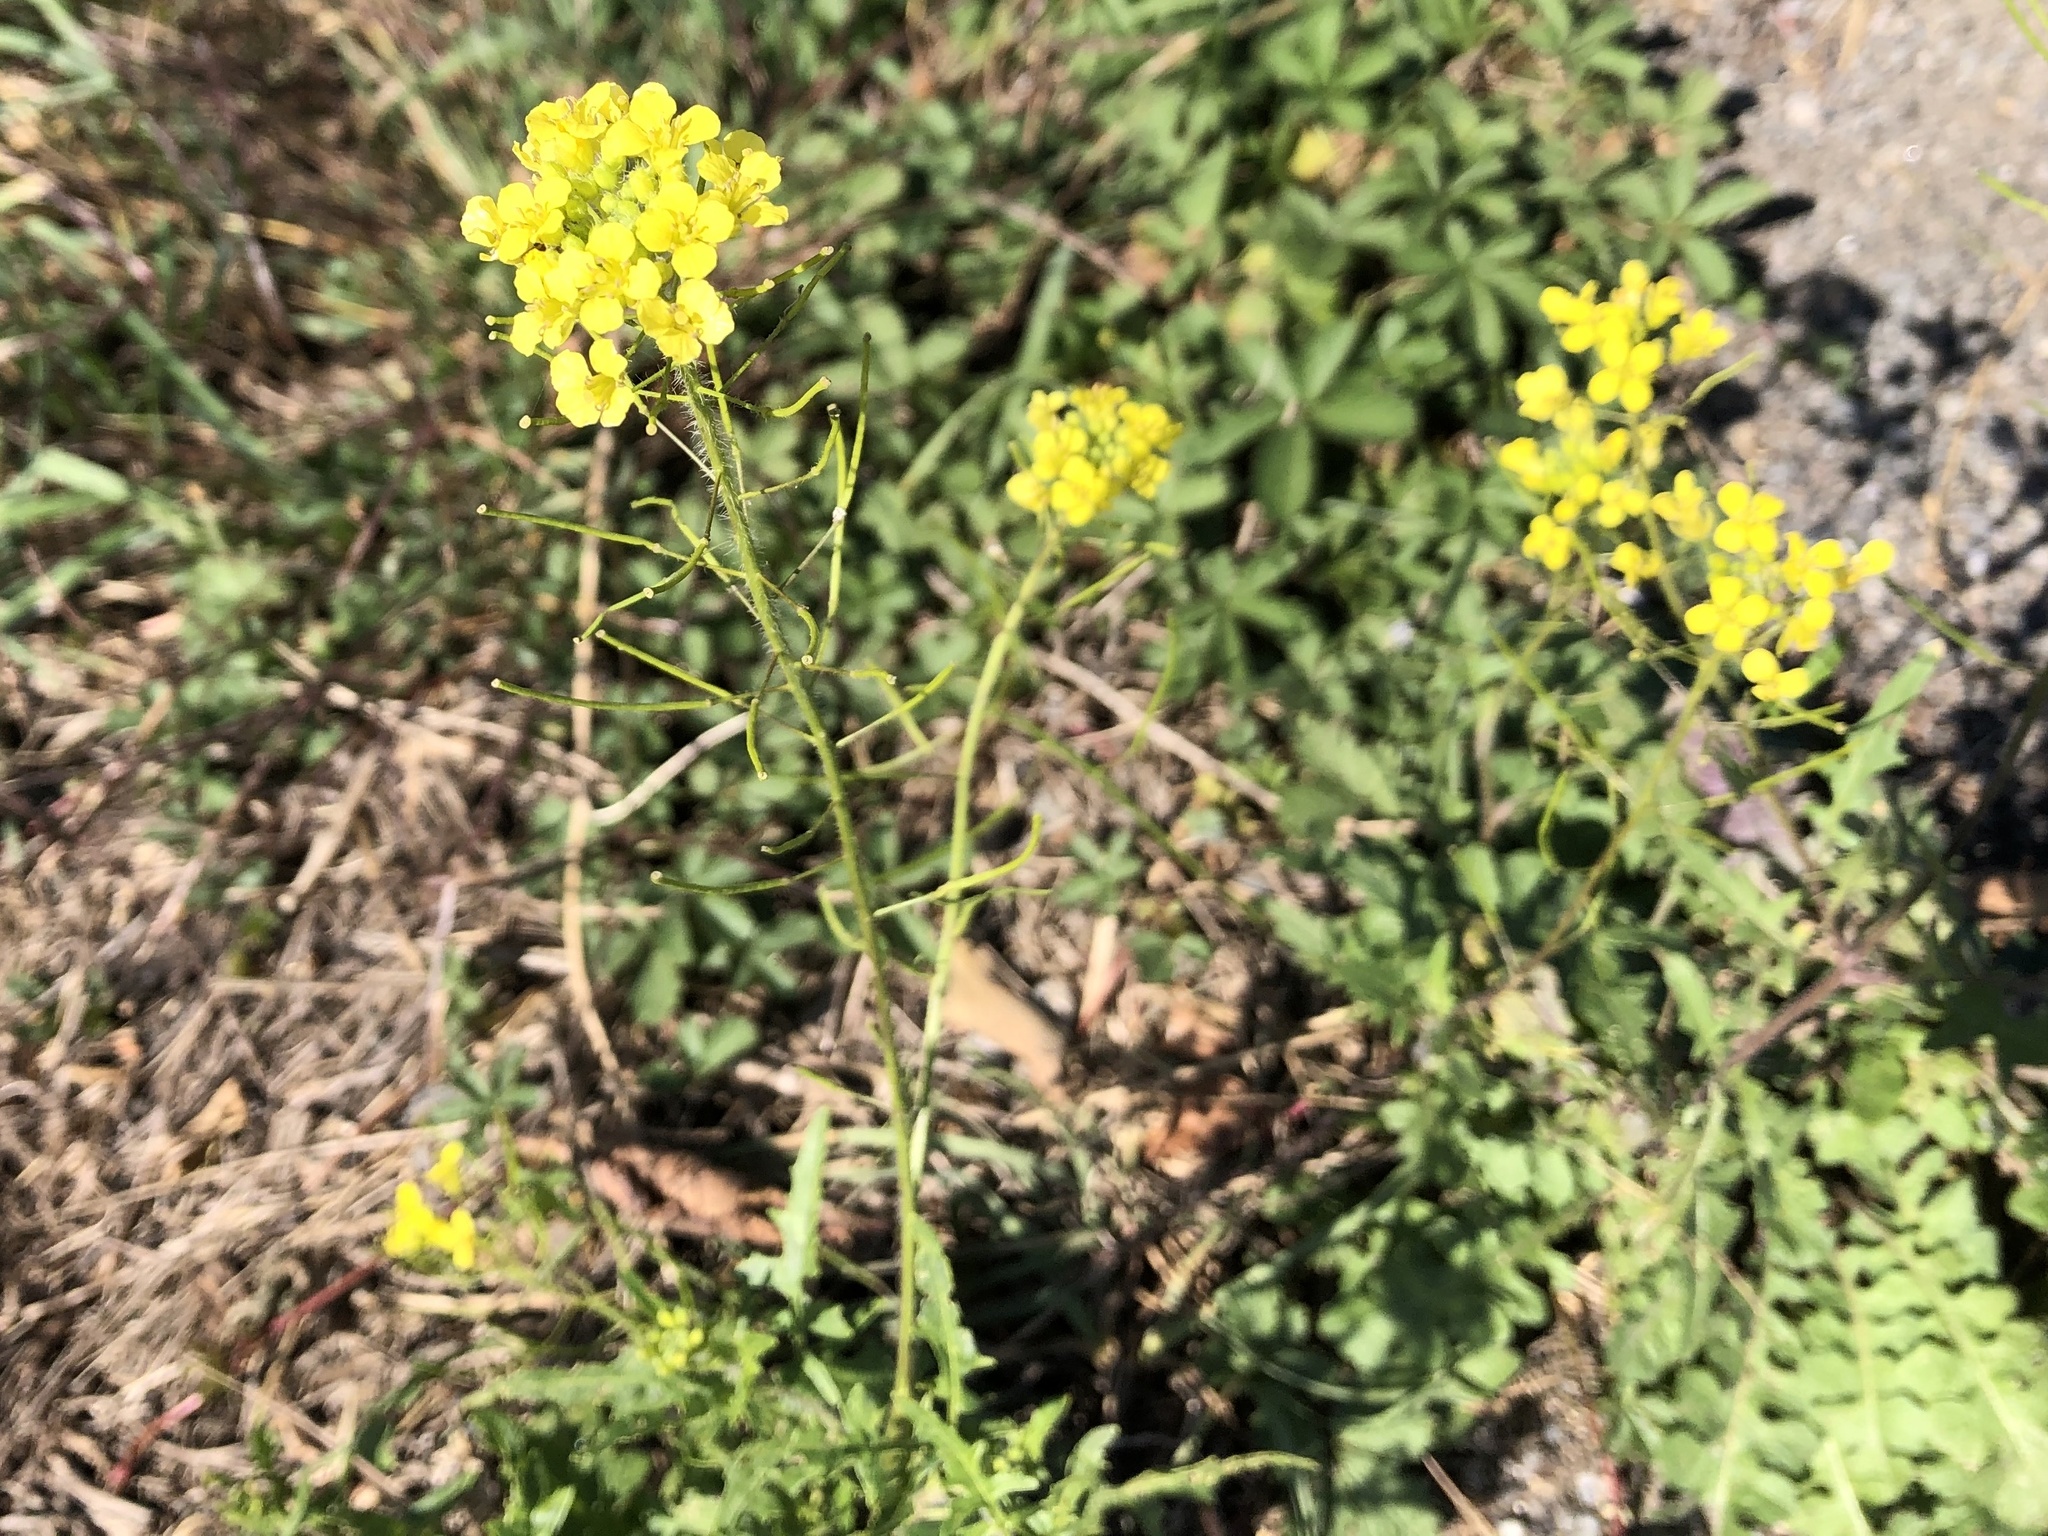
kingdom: Plantae
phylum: Tracheophyta
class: Magnoliopsida
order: Brassicales
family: Brassicaceae
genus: Sisymbrium
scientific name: Sisymbrium loeselii
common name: False london-rocket
